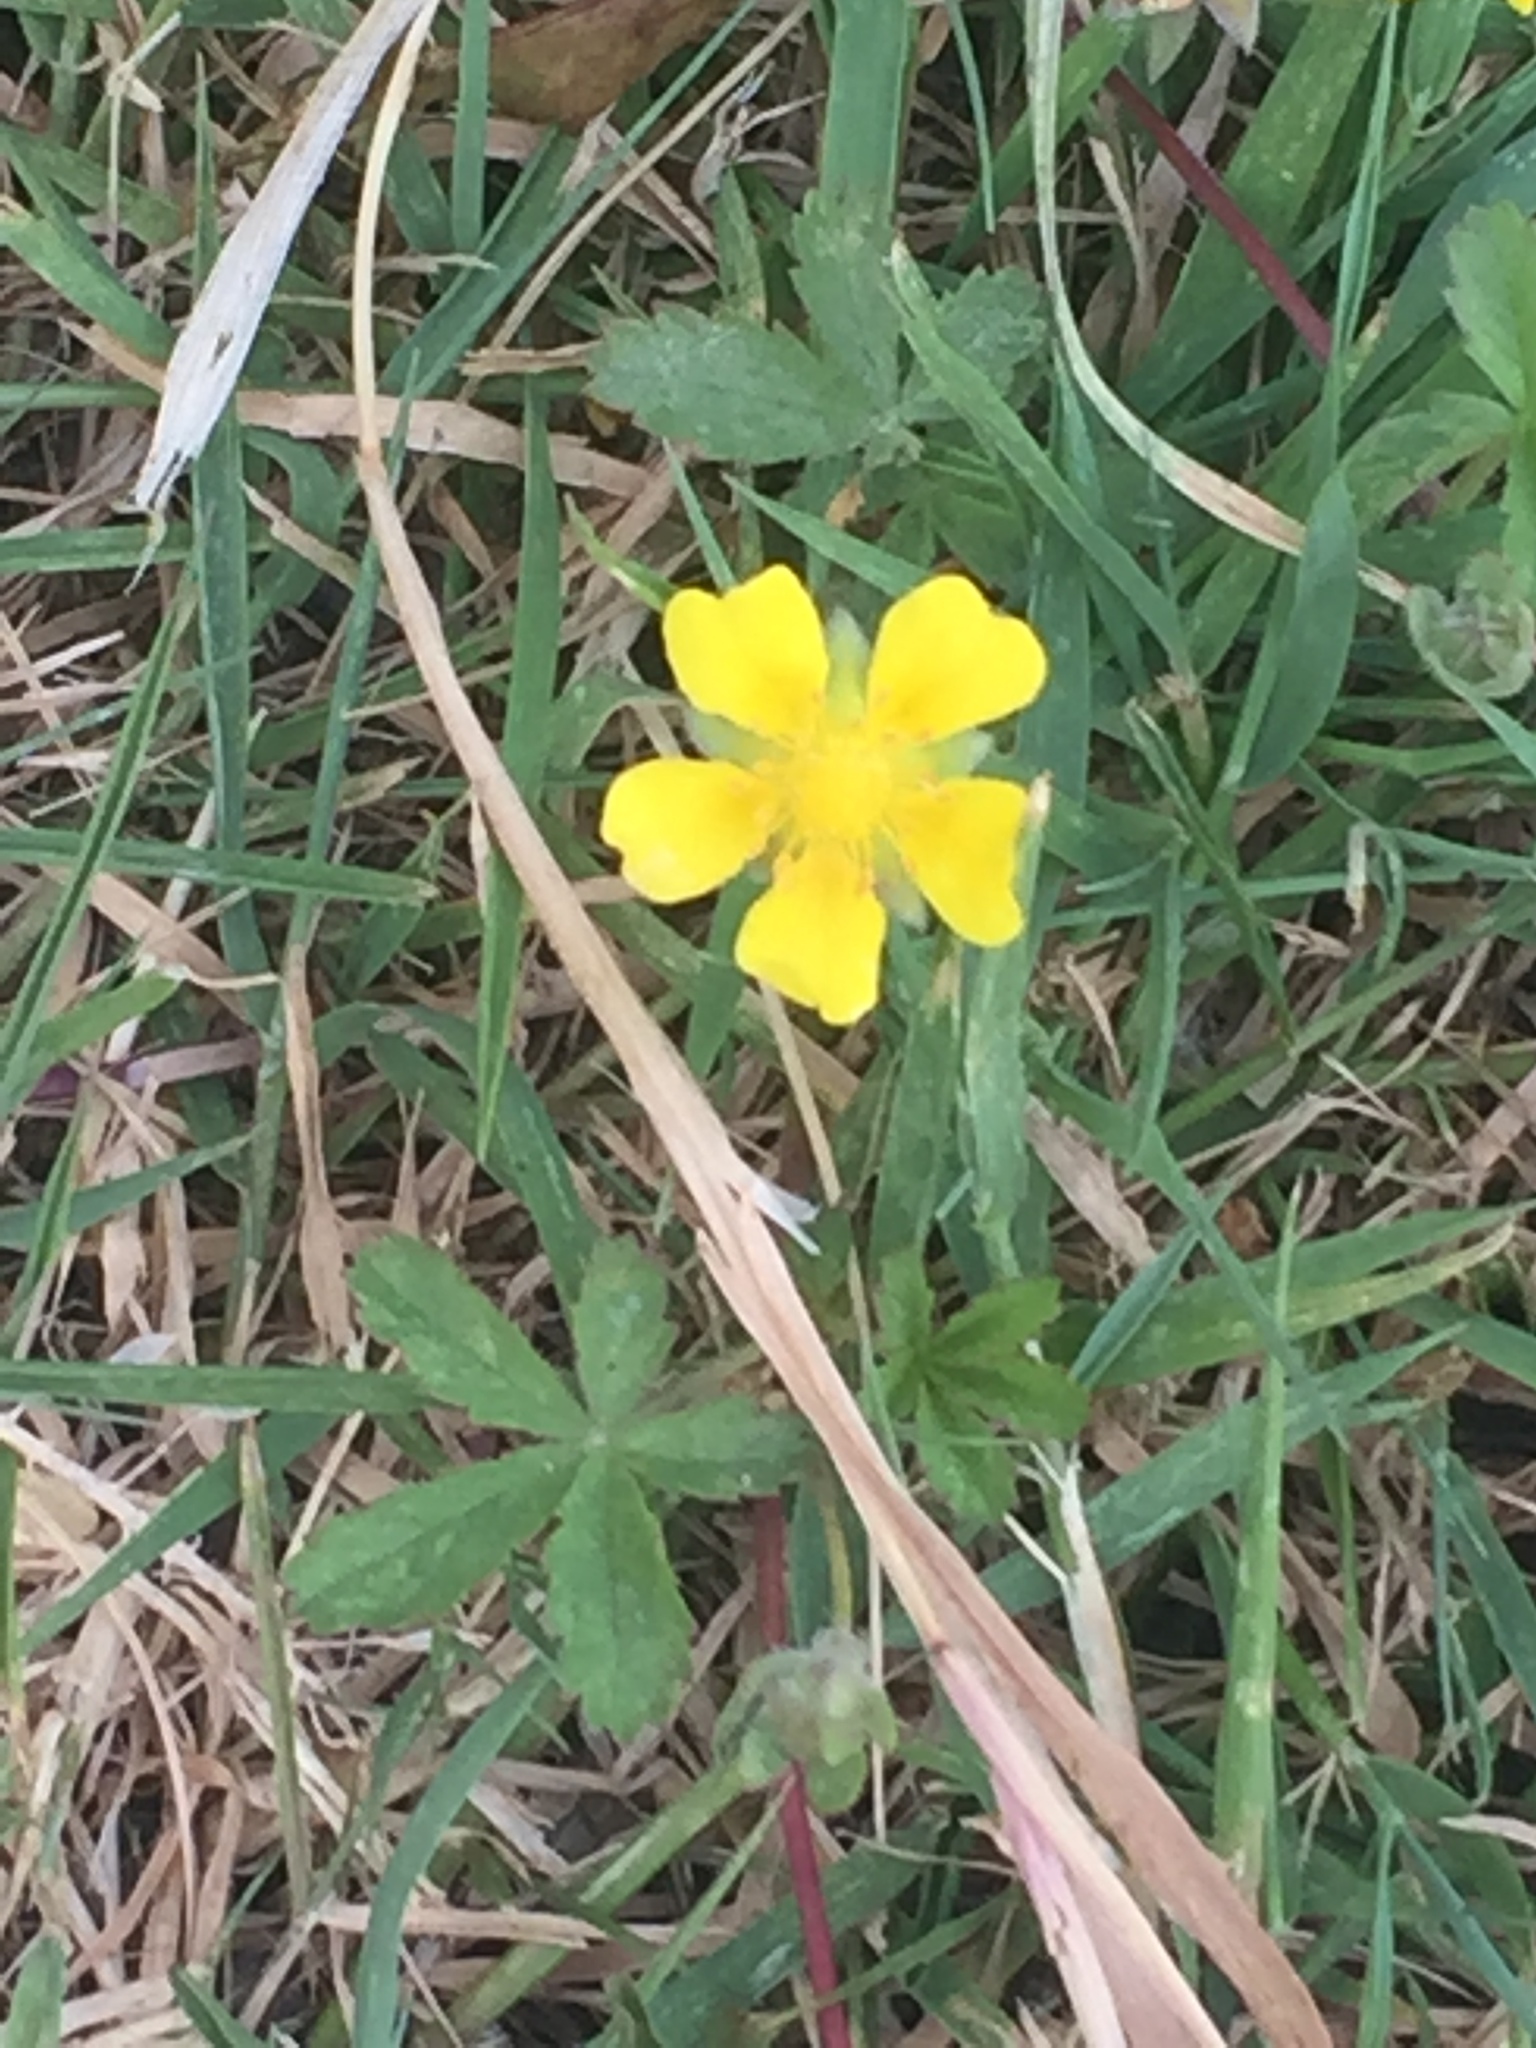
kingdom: Plantae
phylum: Tracheophyta
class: Magnoliopsida
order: Rosales
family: Rosaceae
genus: Potentilla
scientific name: Potentilla reptans
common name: Creeping cinquefoil
